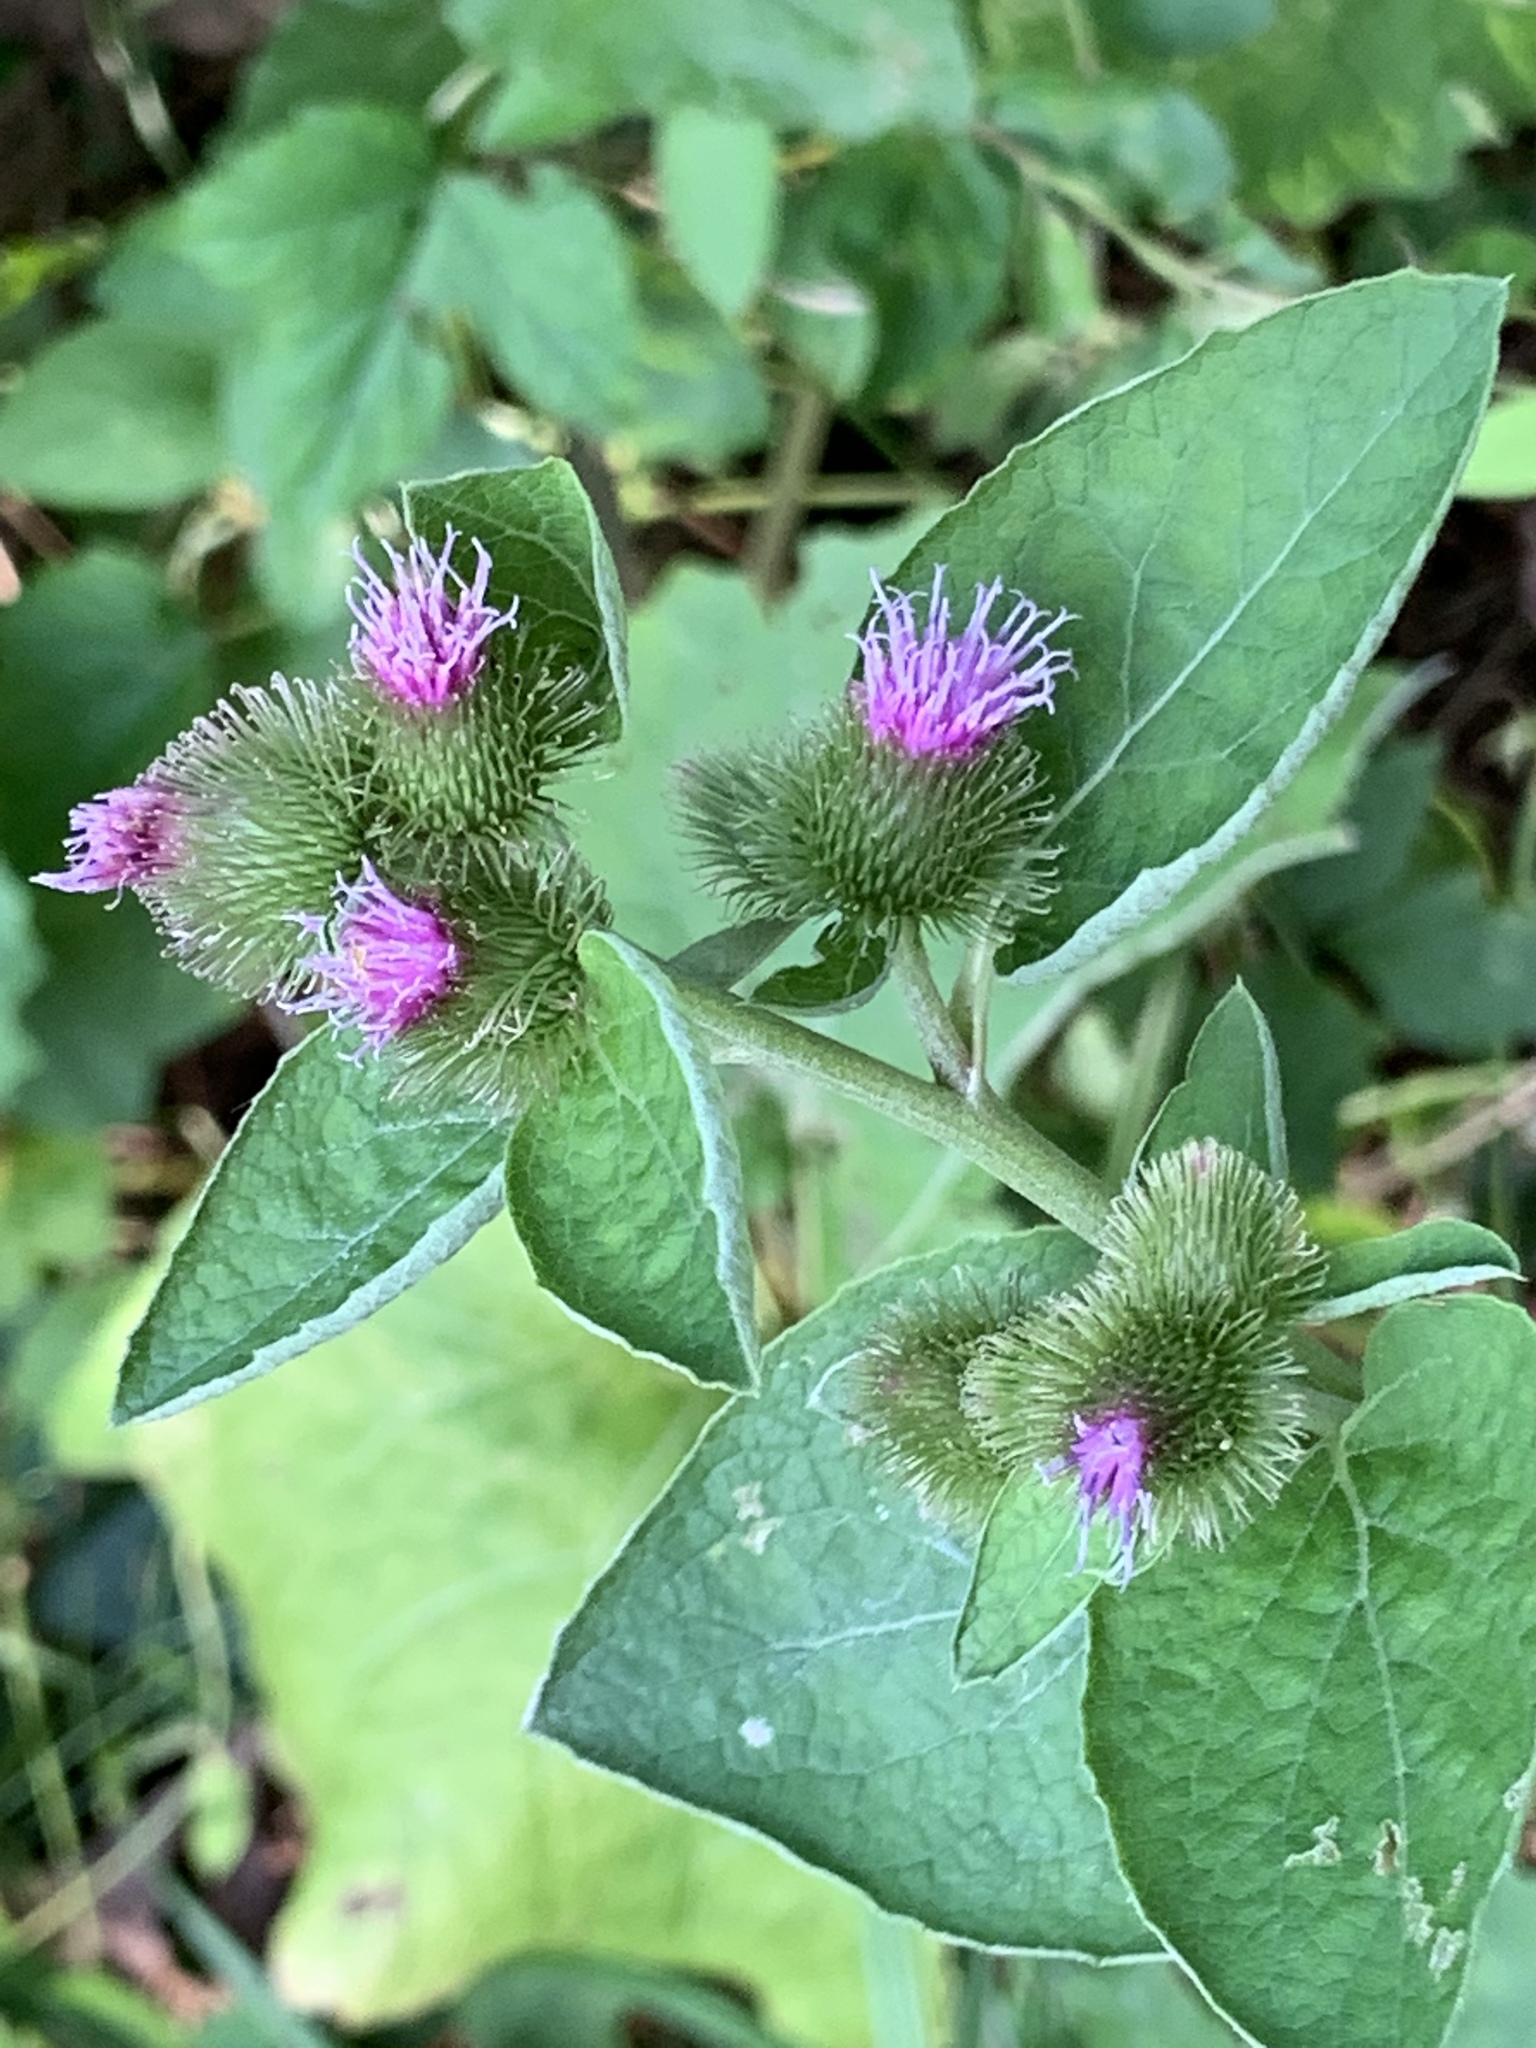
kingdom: Plantae
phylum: Tracheophyta
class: Magnoliopsida
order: Asterales
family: Asteraceae
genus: Arctium
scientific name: Arctium minus
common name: Lesser burdock
